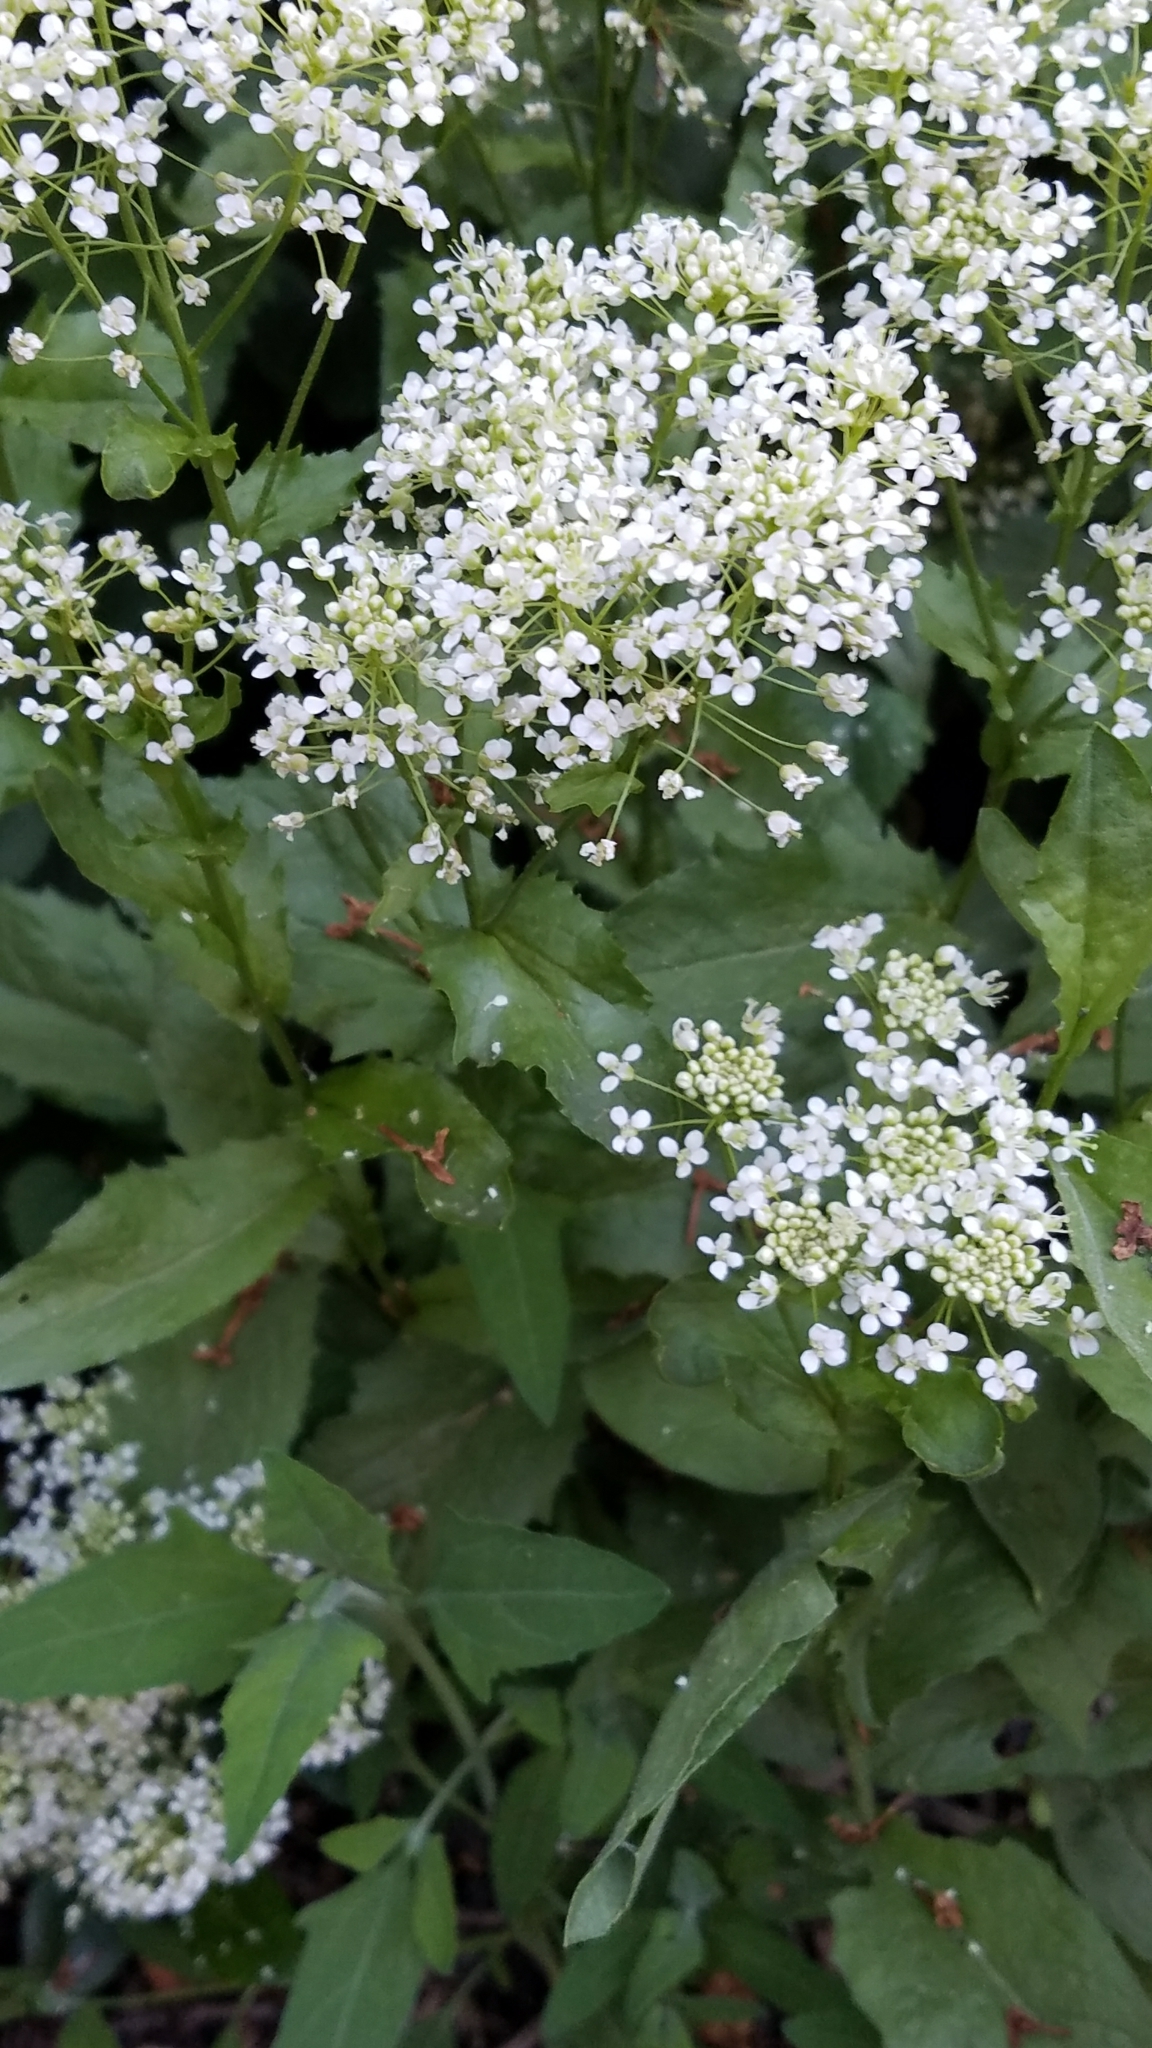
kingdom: Plantae
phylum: Tracheophyta
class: Magnoliopsida
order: Brassicales
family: Brassicaceae
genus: Lepidium
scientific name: Lepidium draba
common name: Hoary cress
